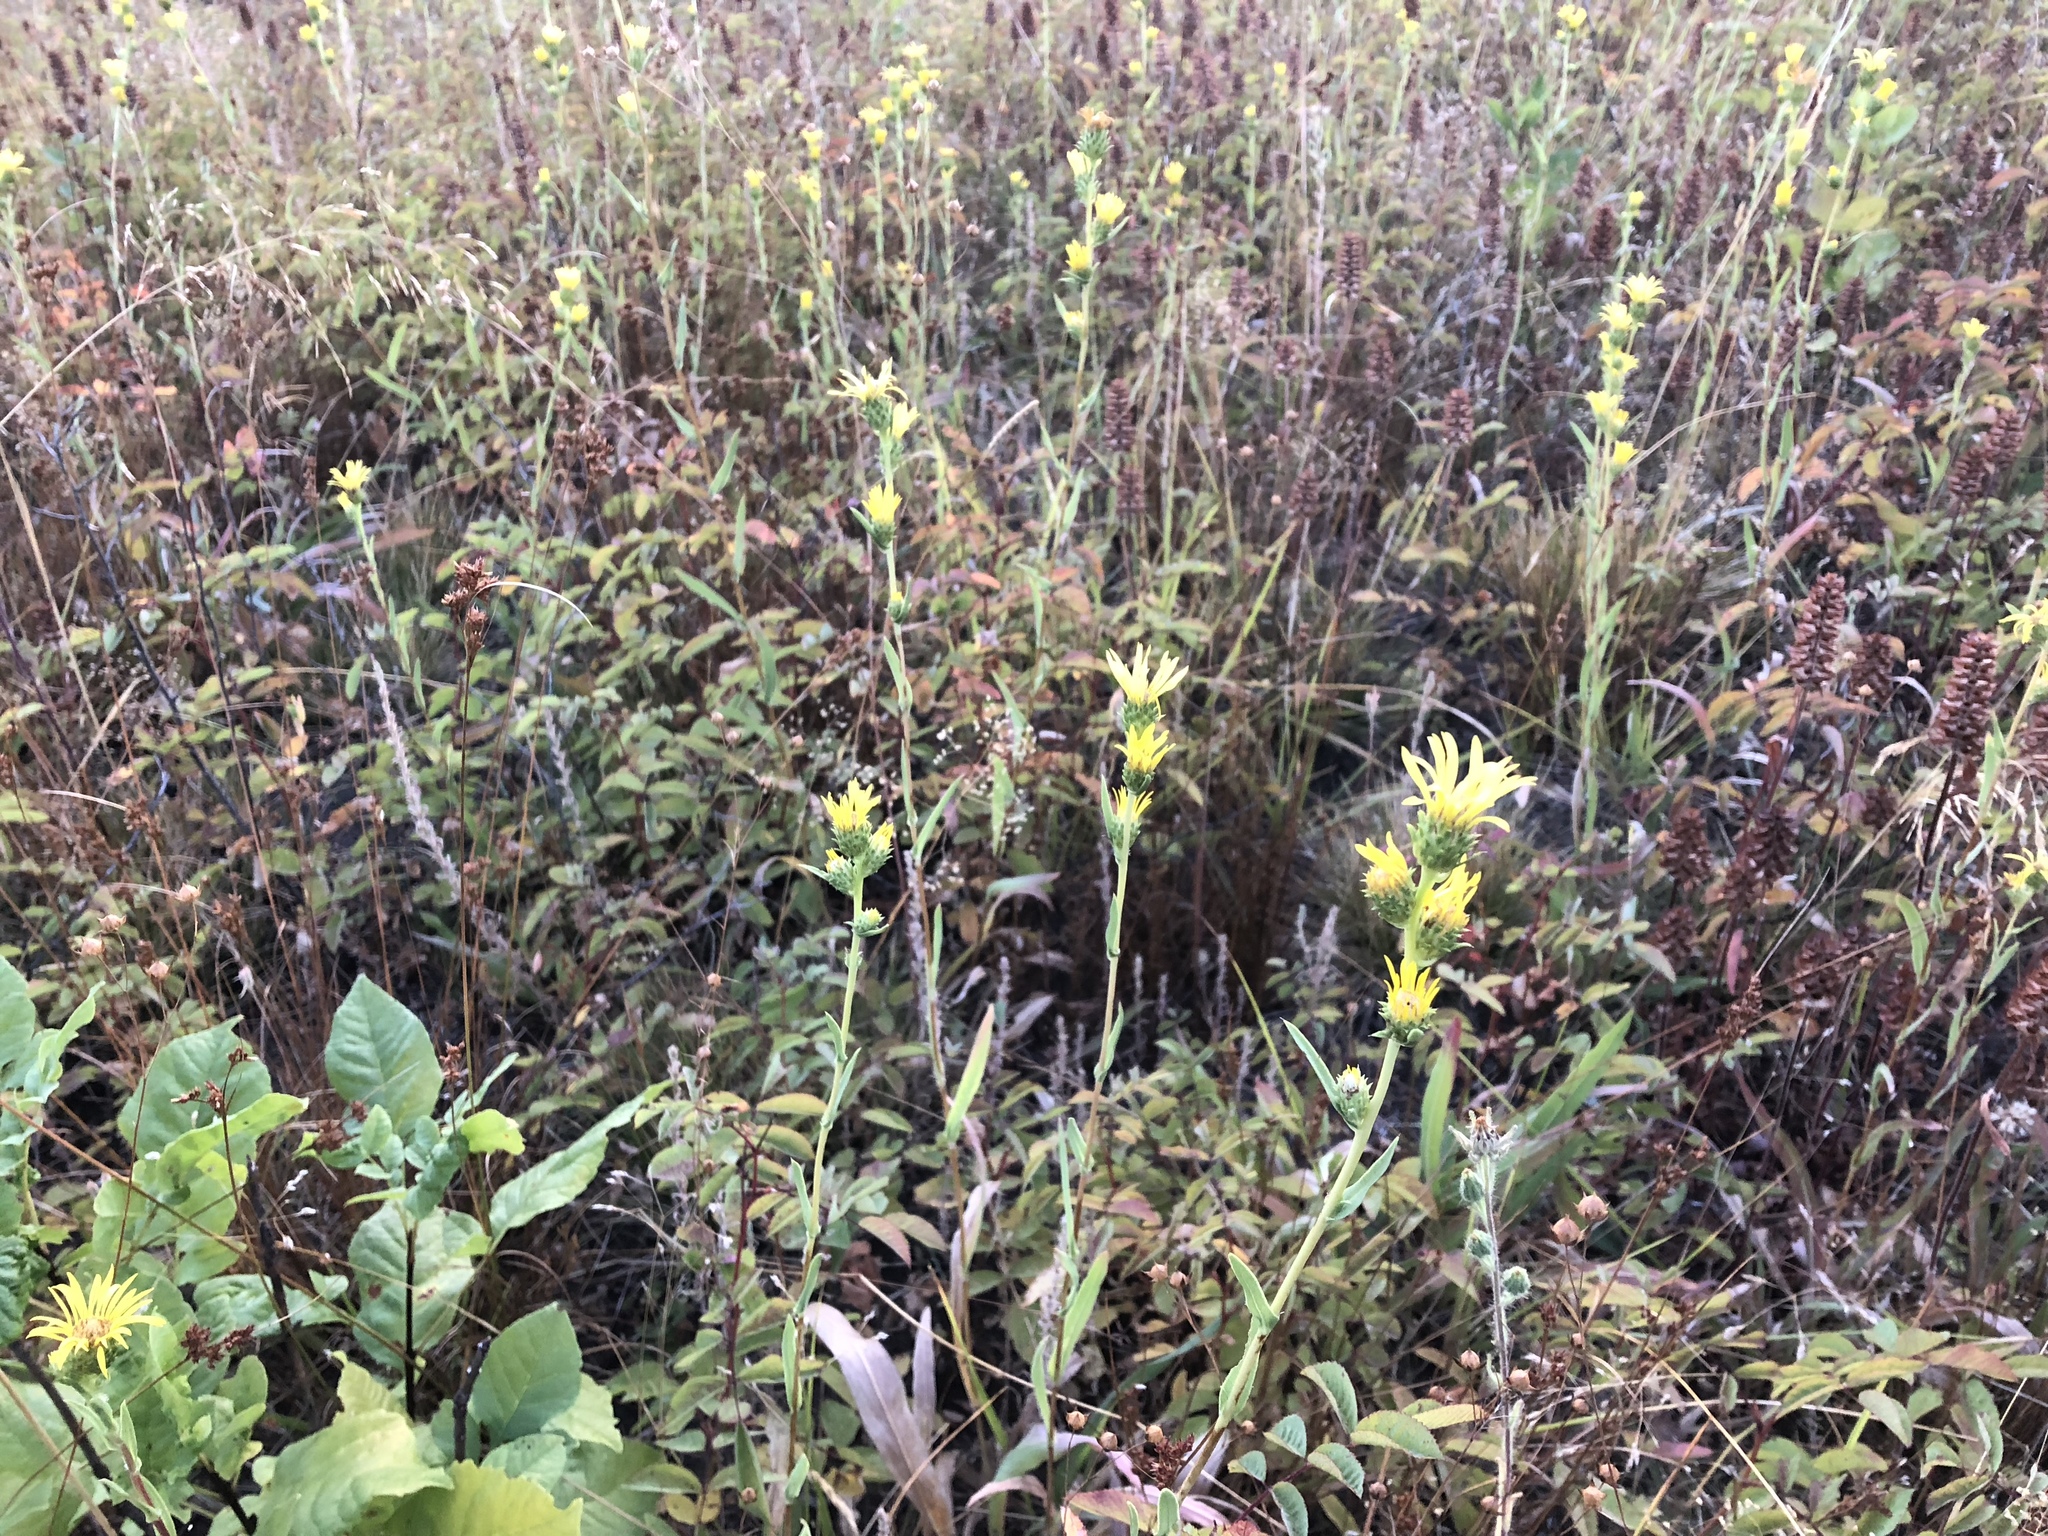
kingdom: Plantae
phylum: Tracheophyta
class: Magnoliopsida
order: Asterales
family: Asteraceae
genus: Pyrrocoma
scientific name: Pyrrocoma racemosa
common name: Clustered goldenweed
